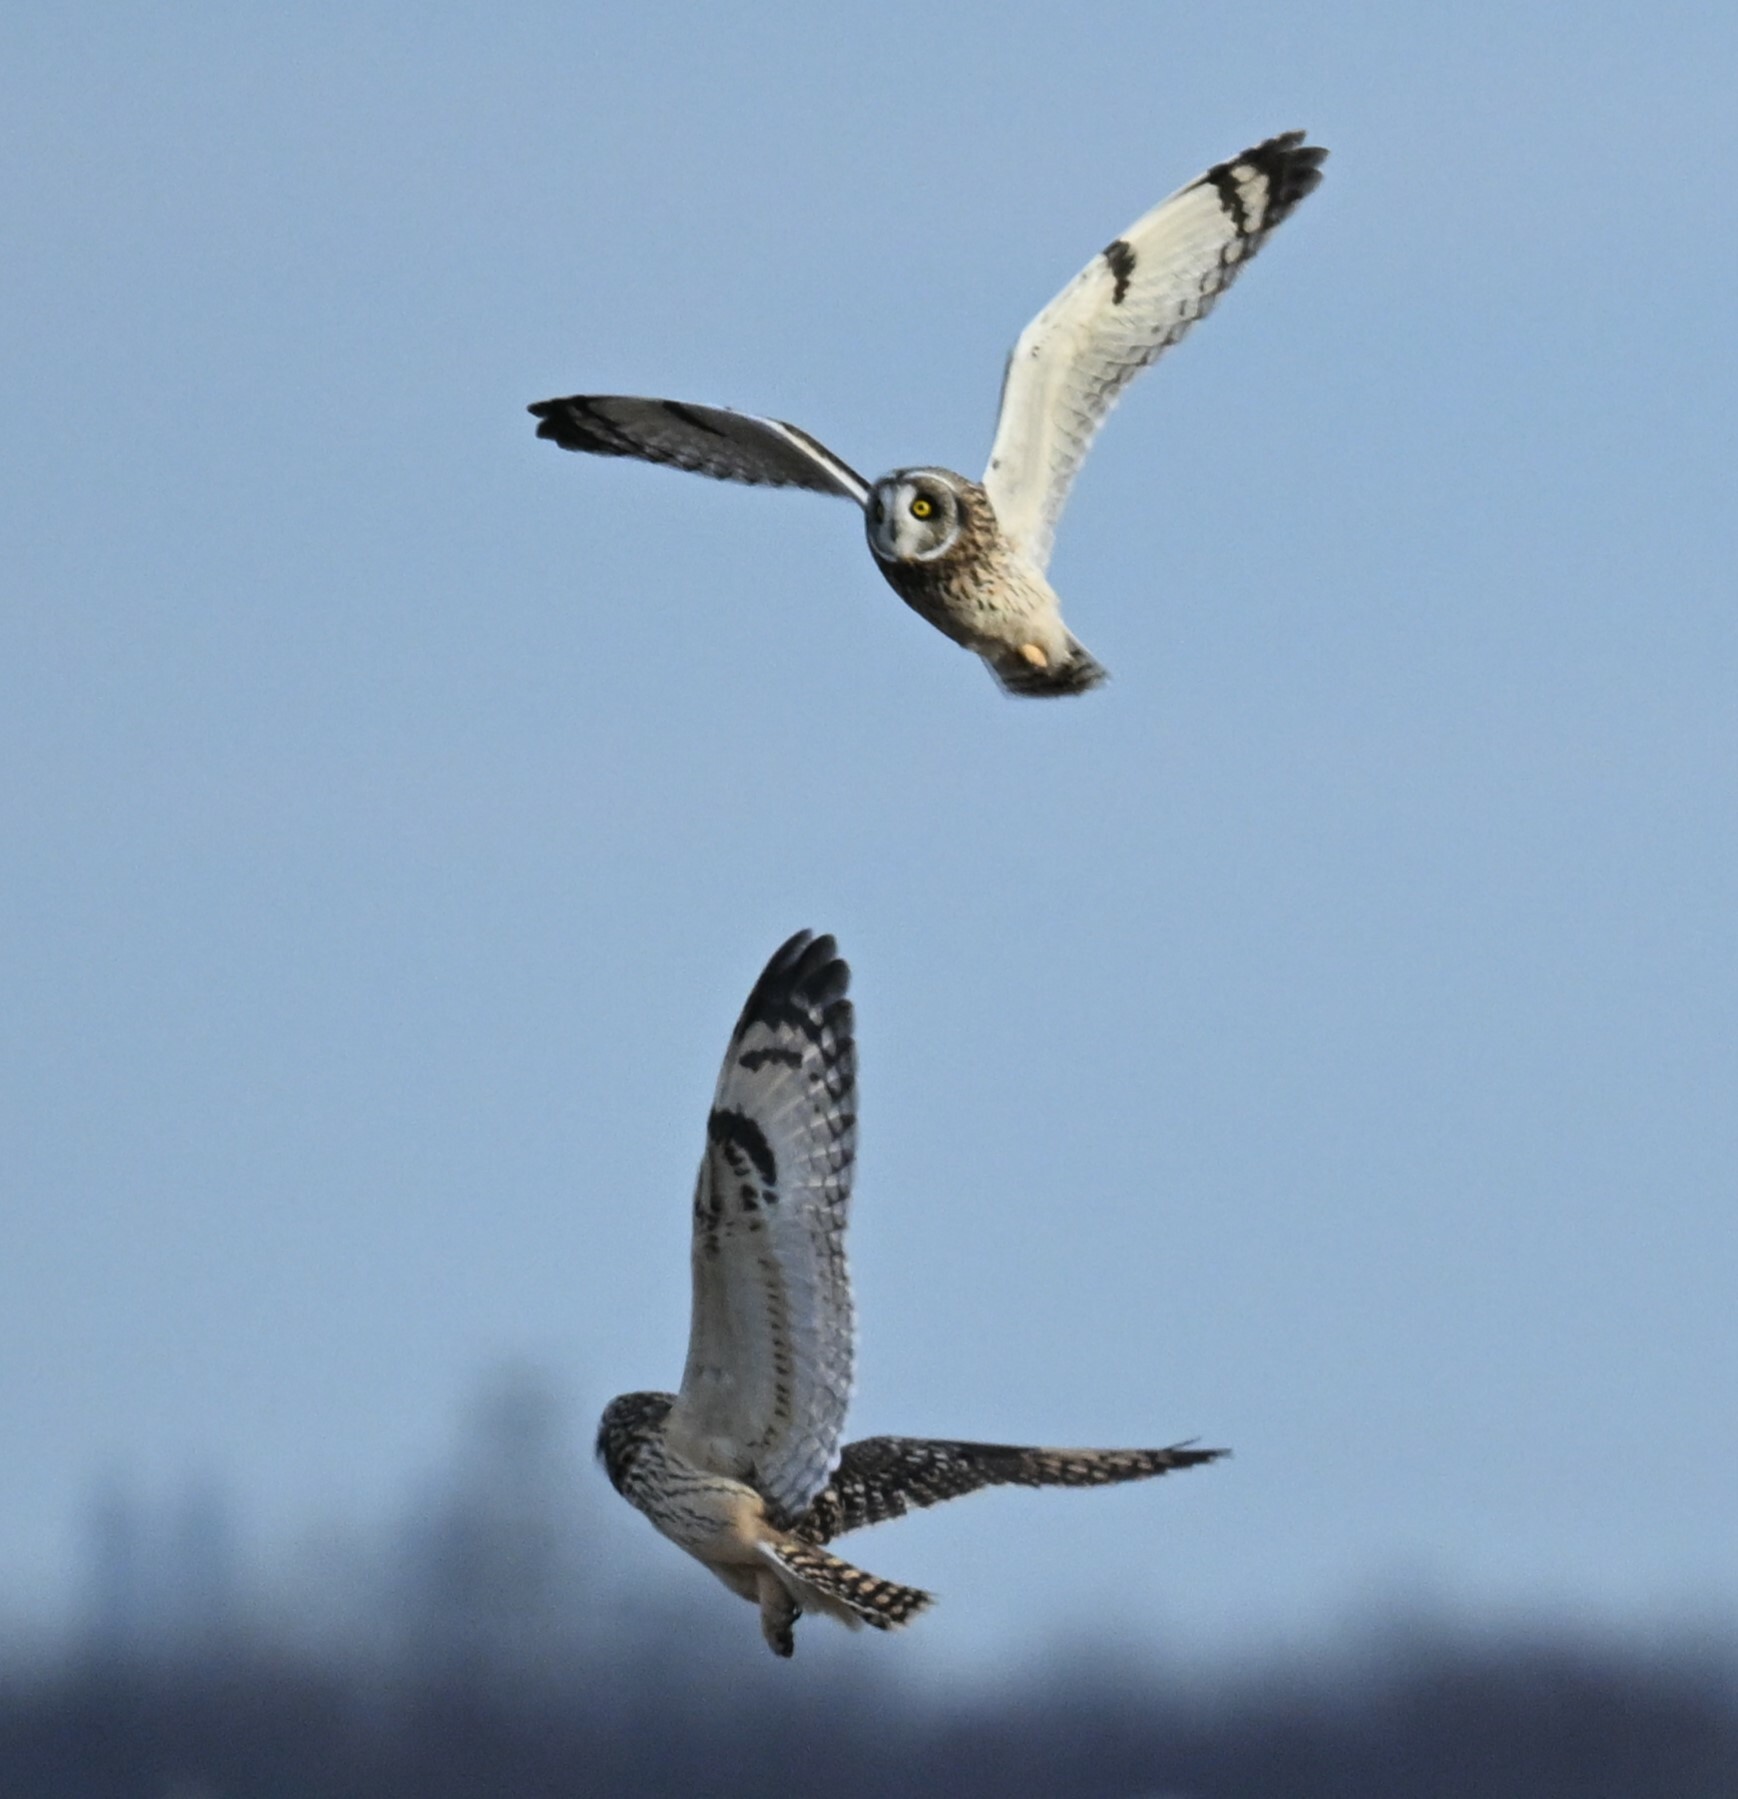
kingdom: Animalia
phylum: Chordata
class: Aves
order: Strigiformes
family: Strigidae
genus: Asio
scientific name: Asio flammeus
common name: Short-eared owl
